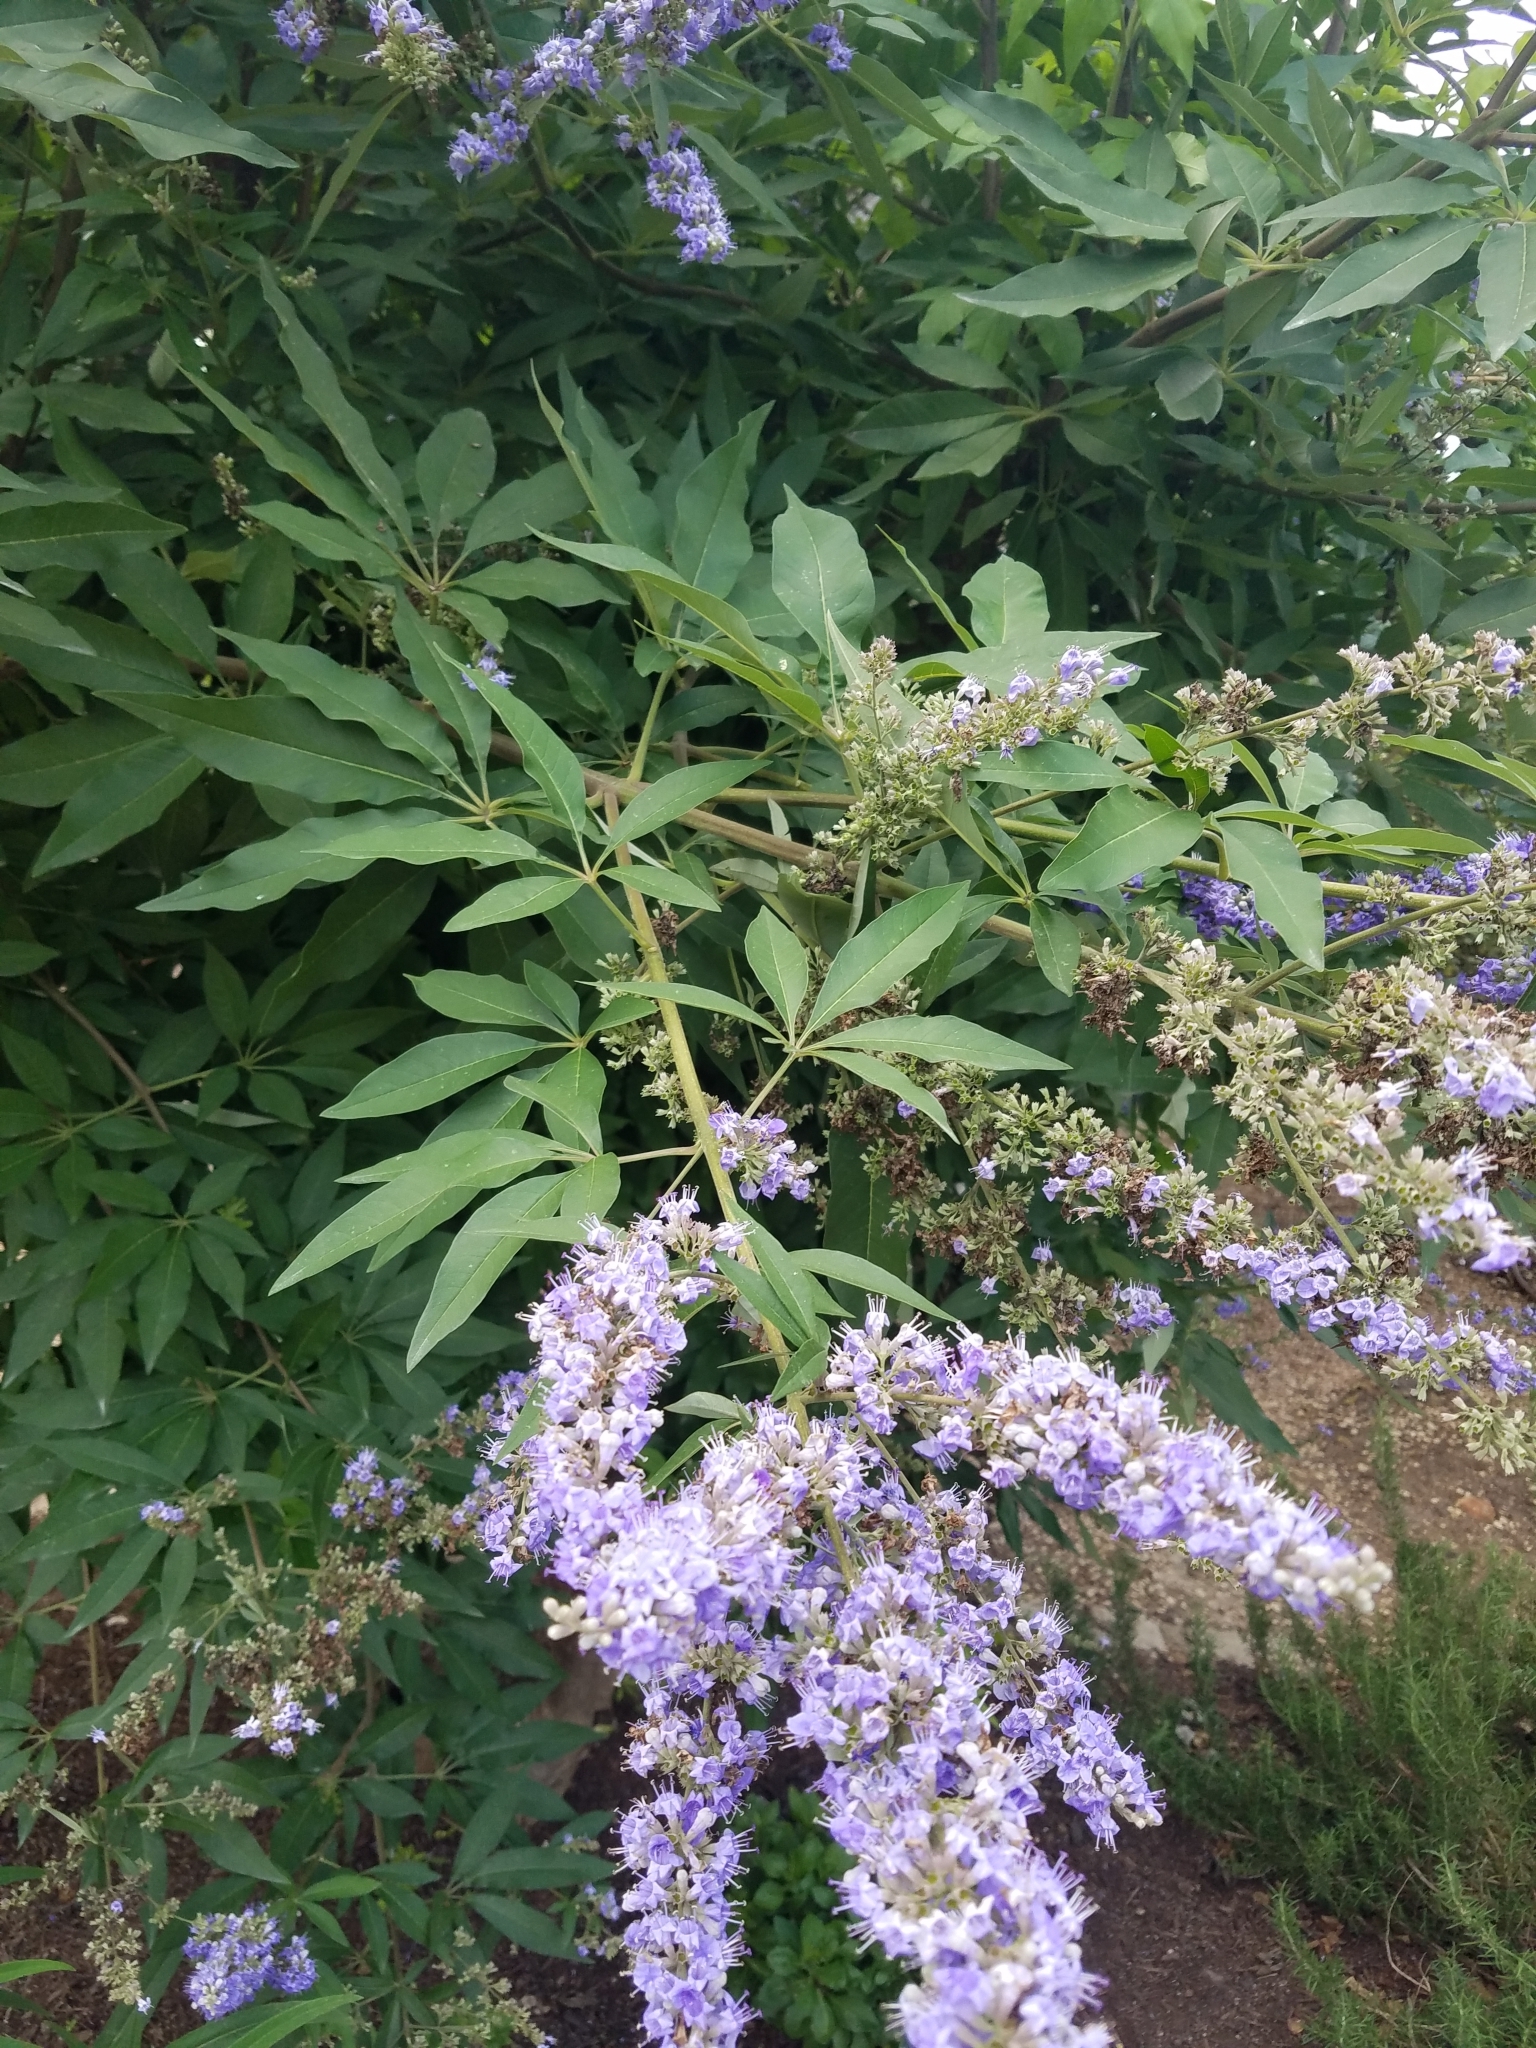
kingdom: Plantae
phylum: Tracheophyta
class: Magnoliopsida
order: Lamiales
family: Lamiaceae
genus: Vitex
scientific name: Vitex agnus-castus
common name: Chasteberry
